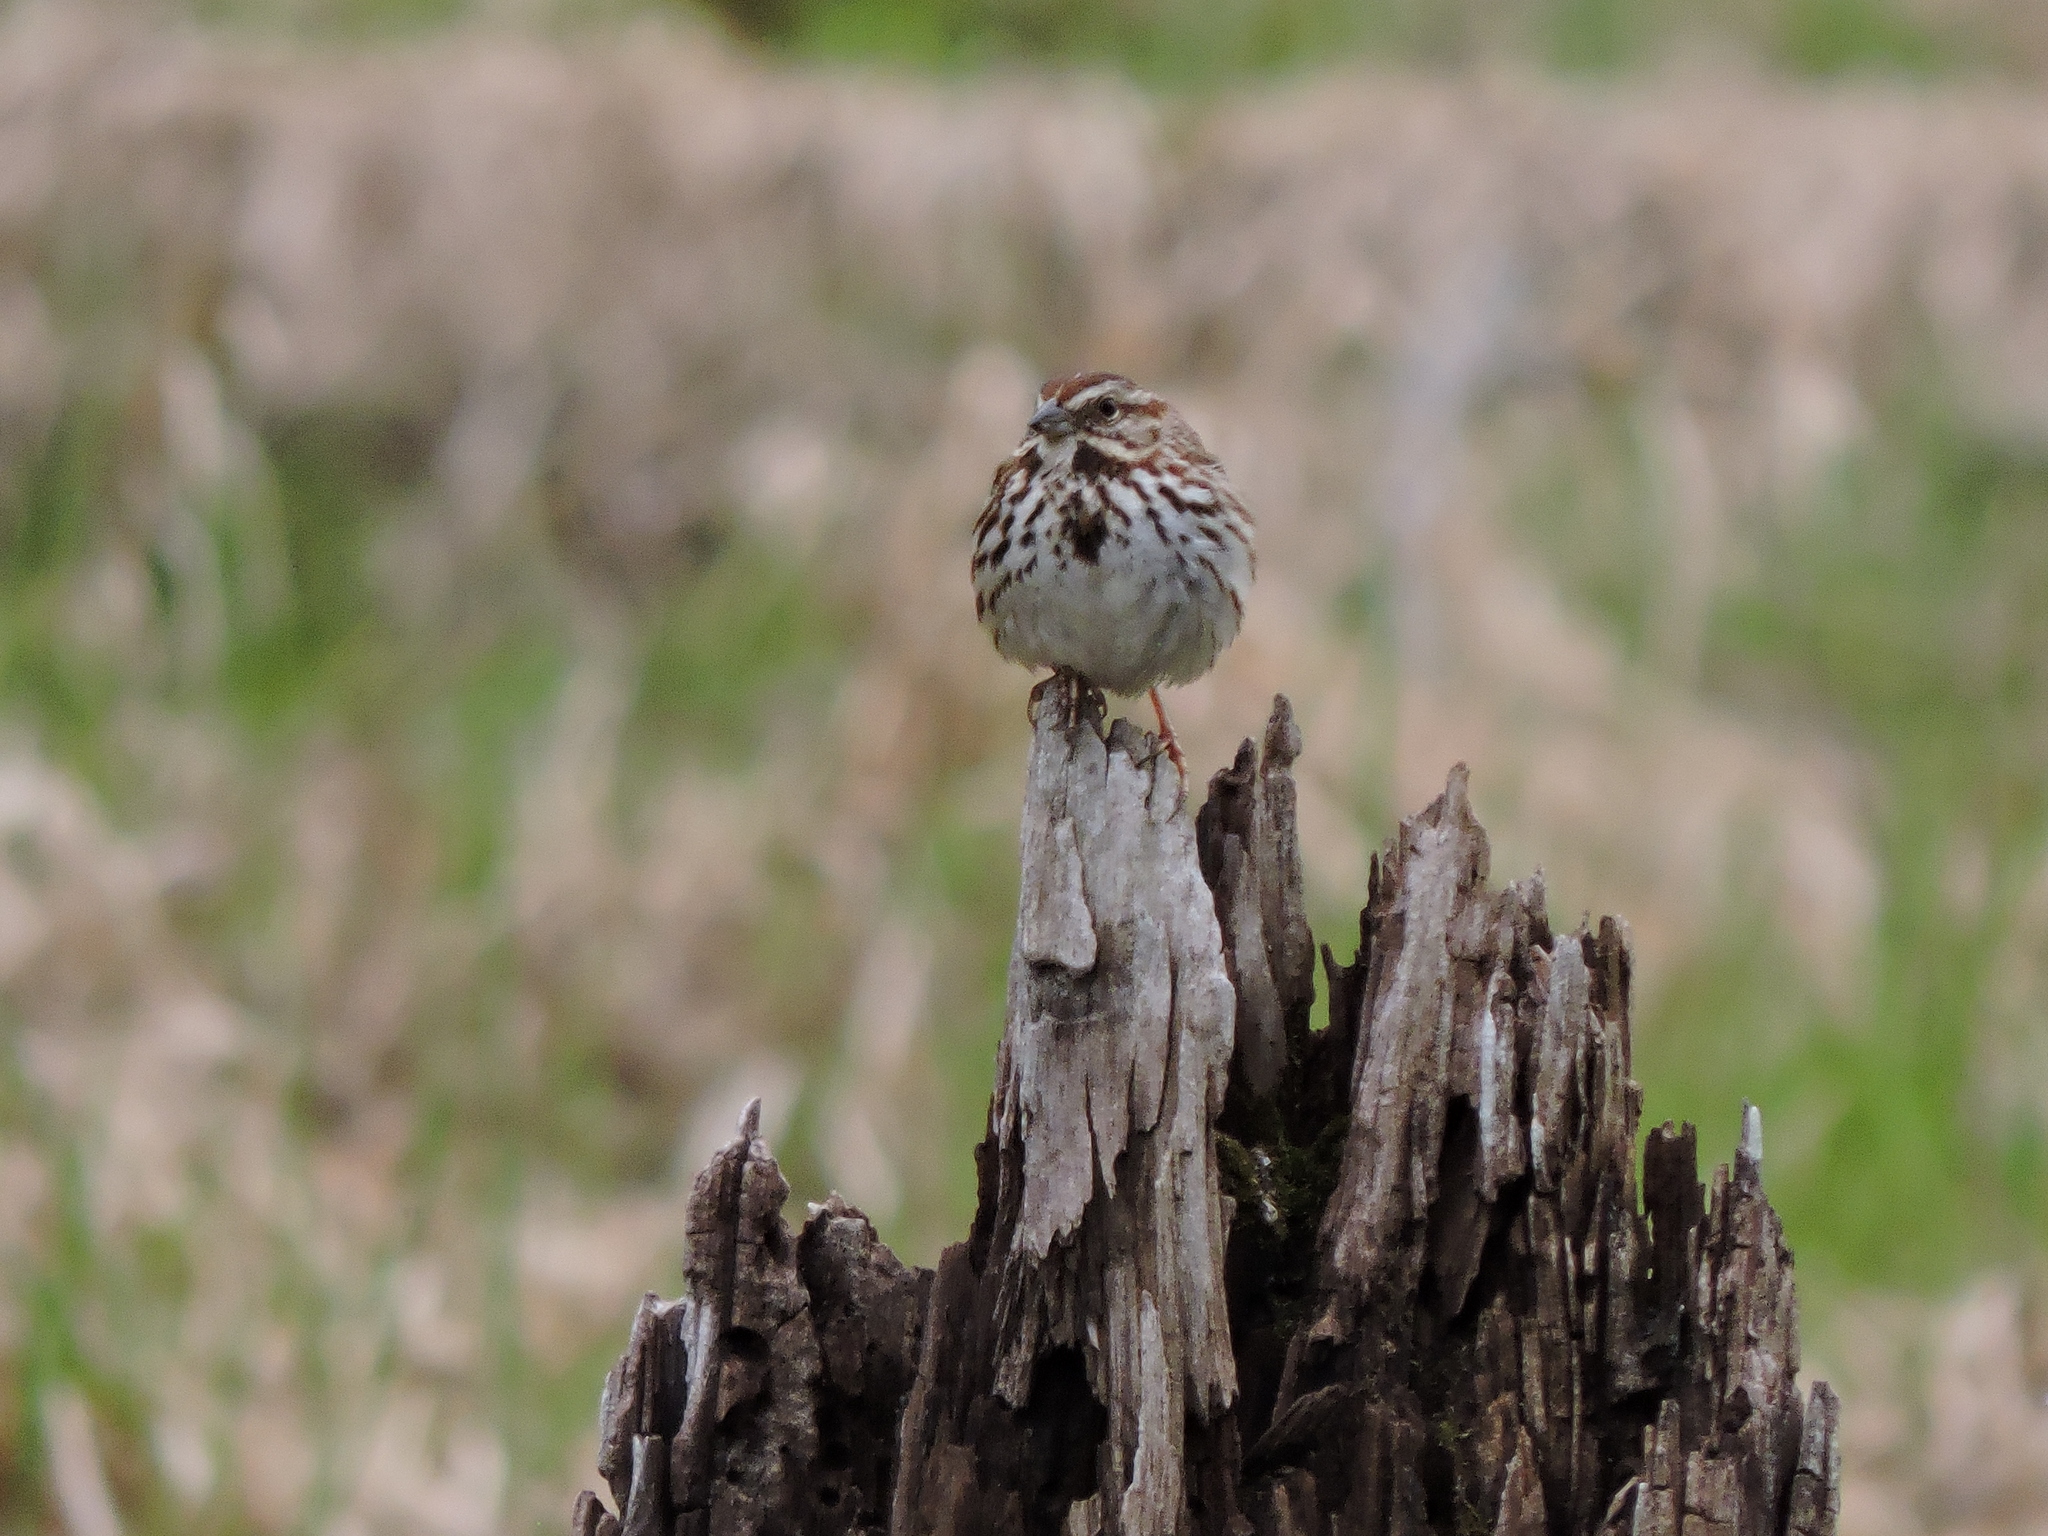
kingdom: Animalia
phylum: Chordata
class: Aves
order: Passeriformes
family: Passerellidae
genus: Melospiza
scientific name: Melospiza melodia
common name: Song sparrow
